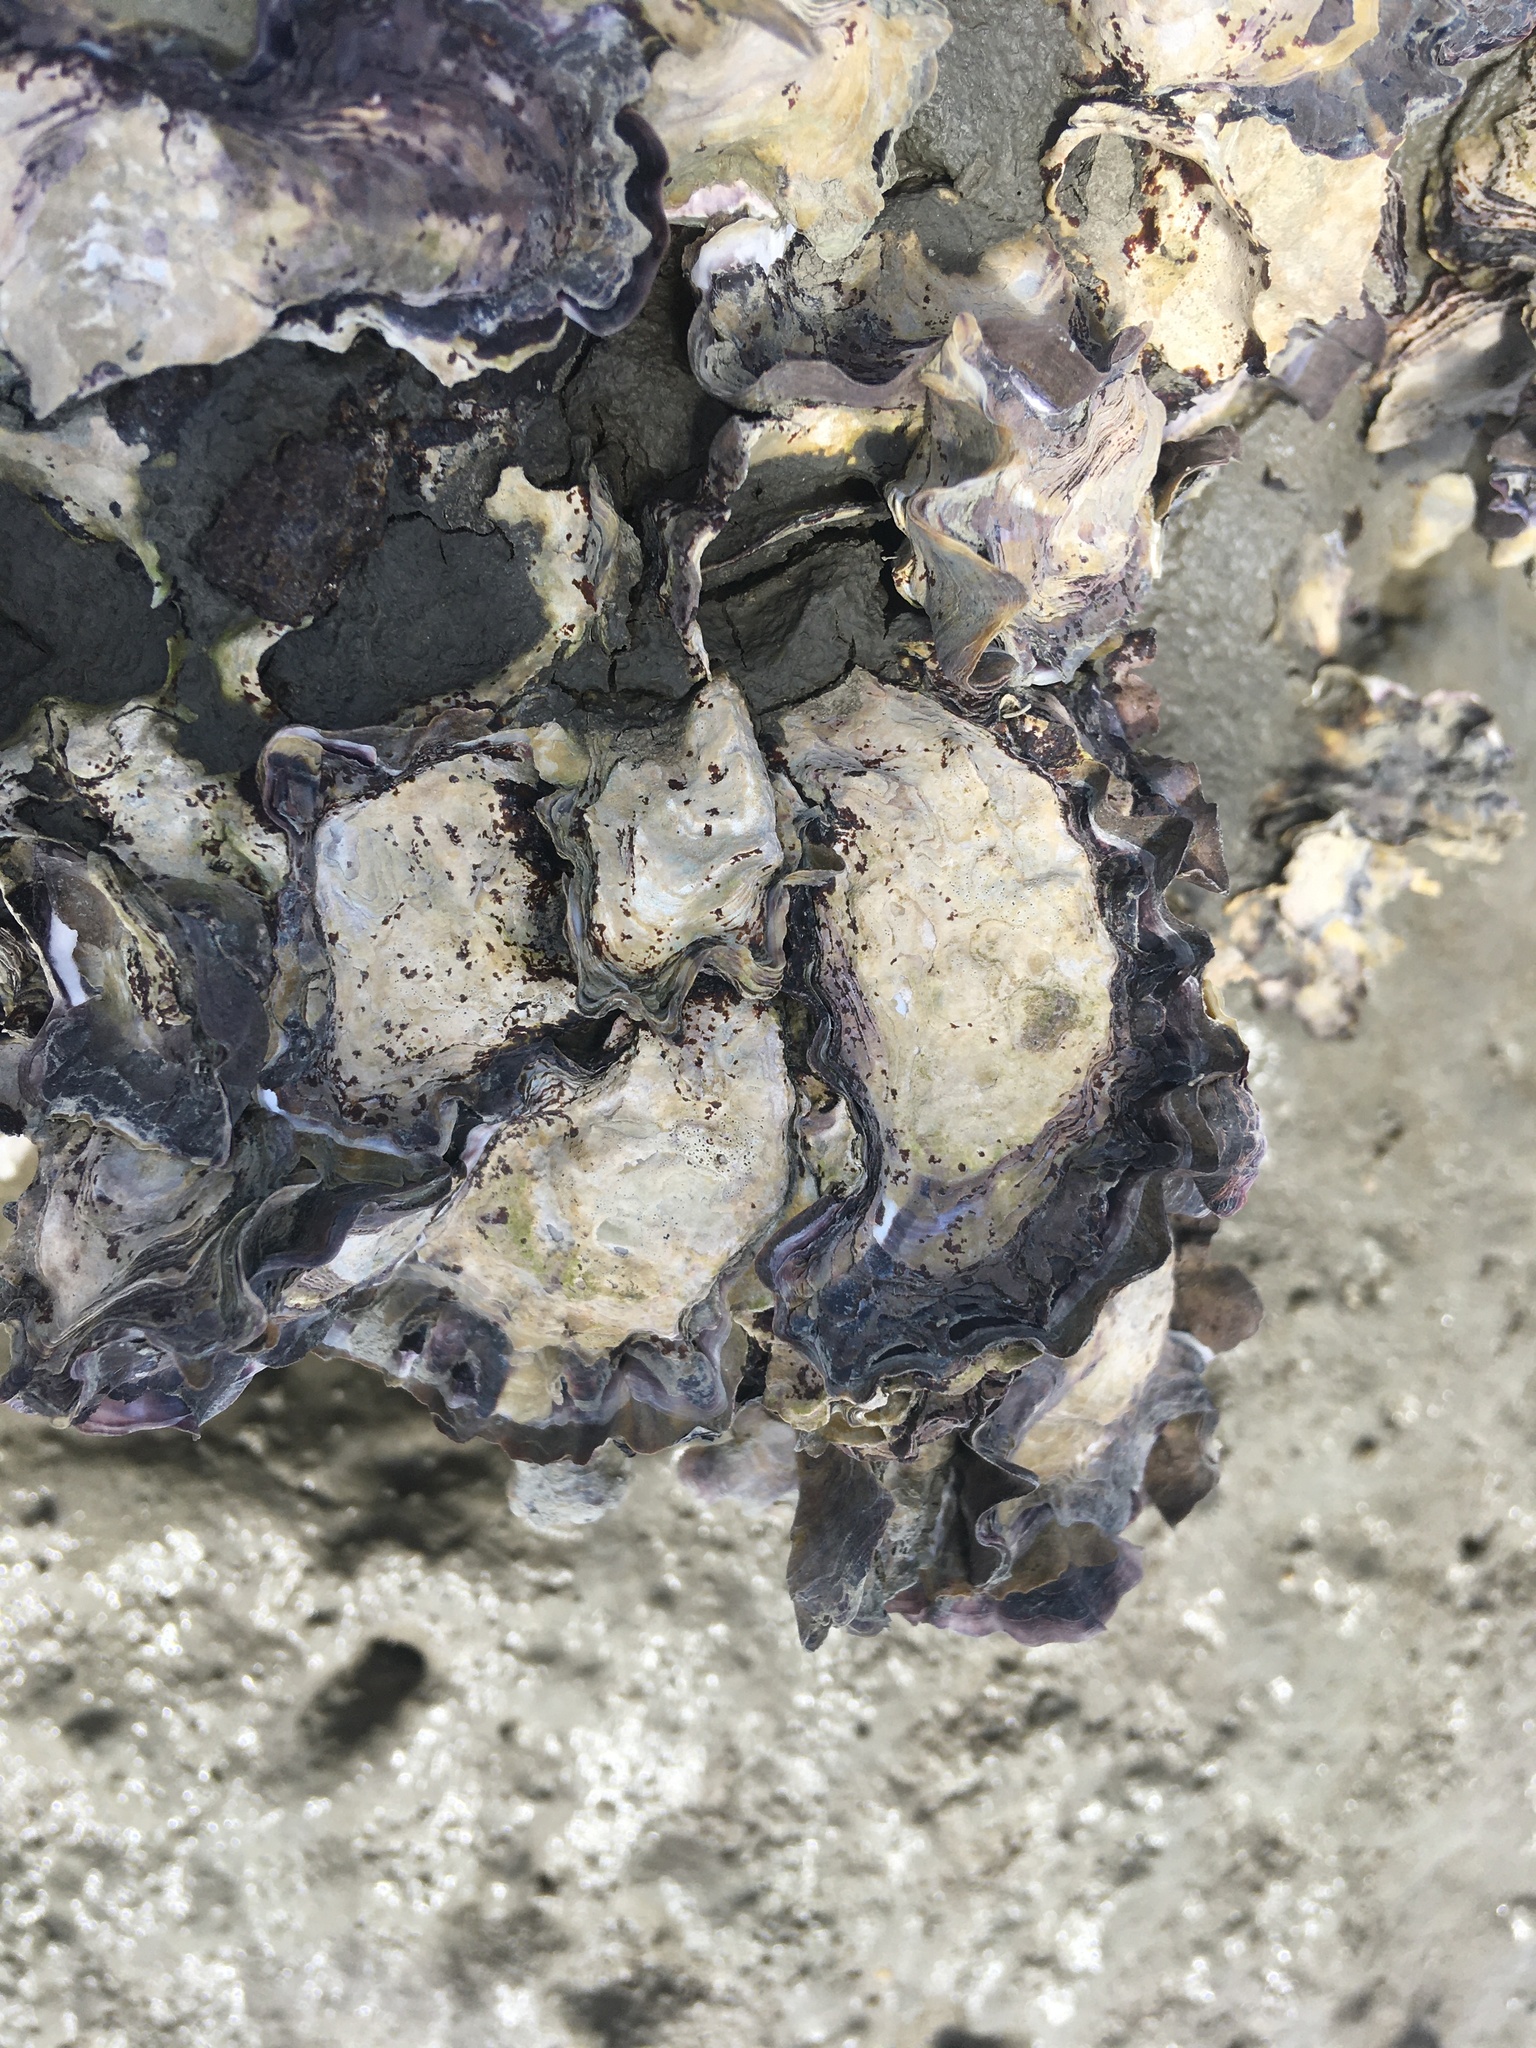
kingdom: Animalia
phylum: Mollusca
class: Bivalvia
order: Ostreida
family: Ostreidae
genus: Saccostrea
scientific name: Saccostrea glomerata
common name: Sydney cupped oyster
